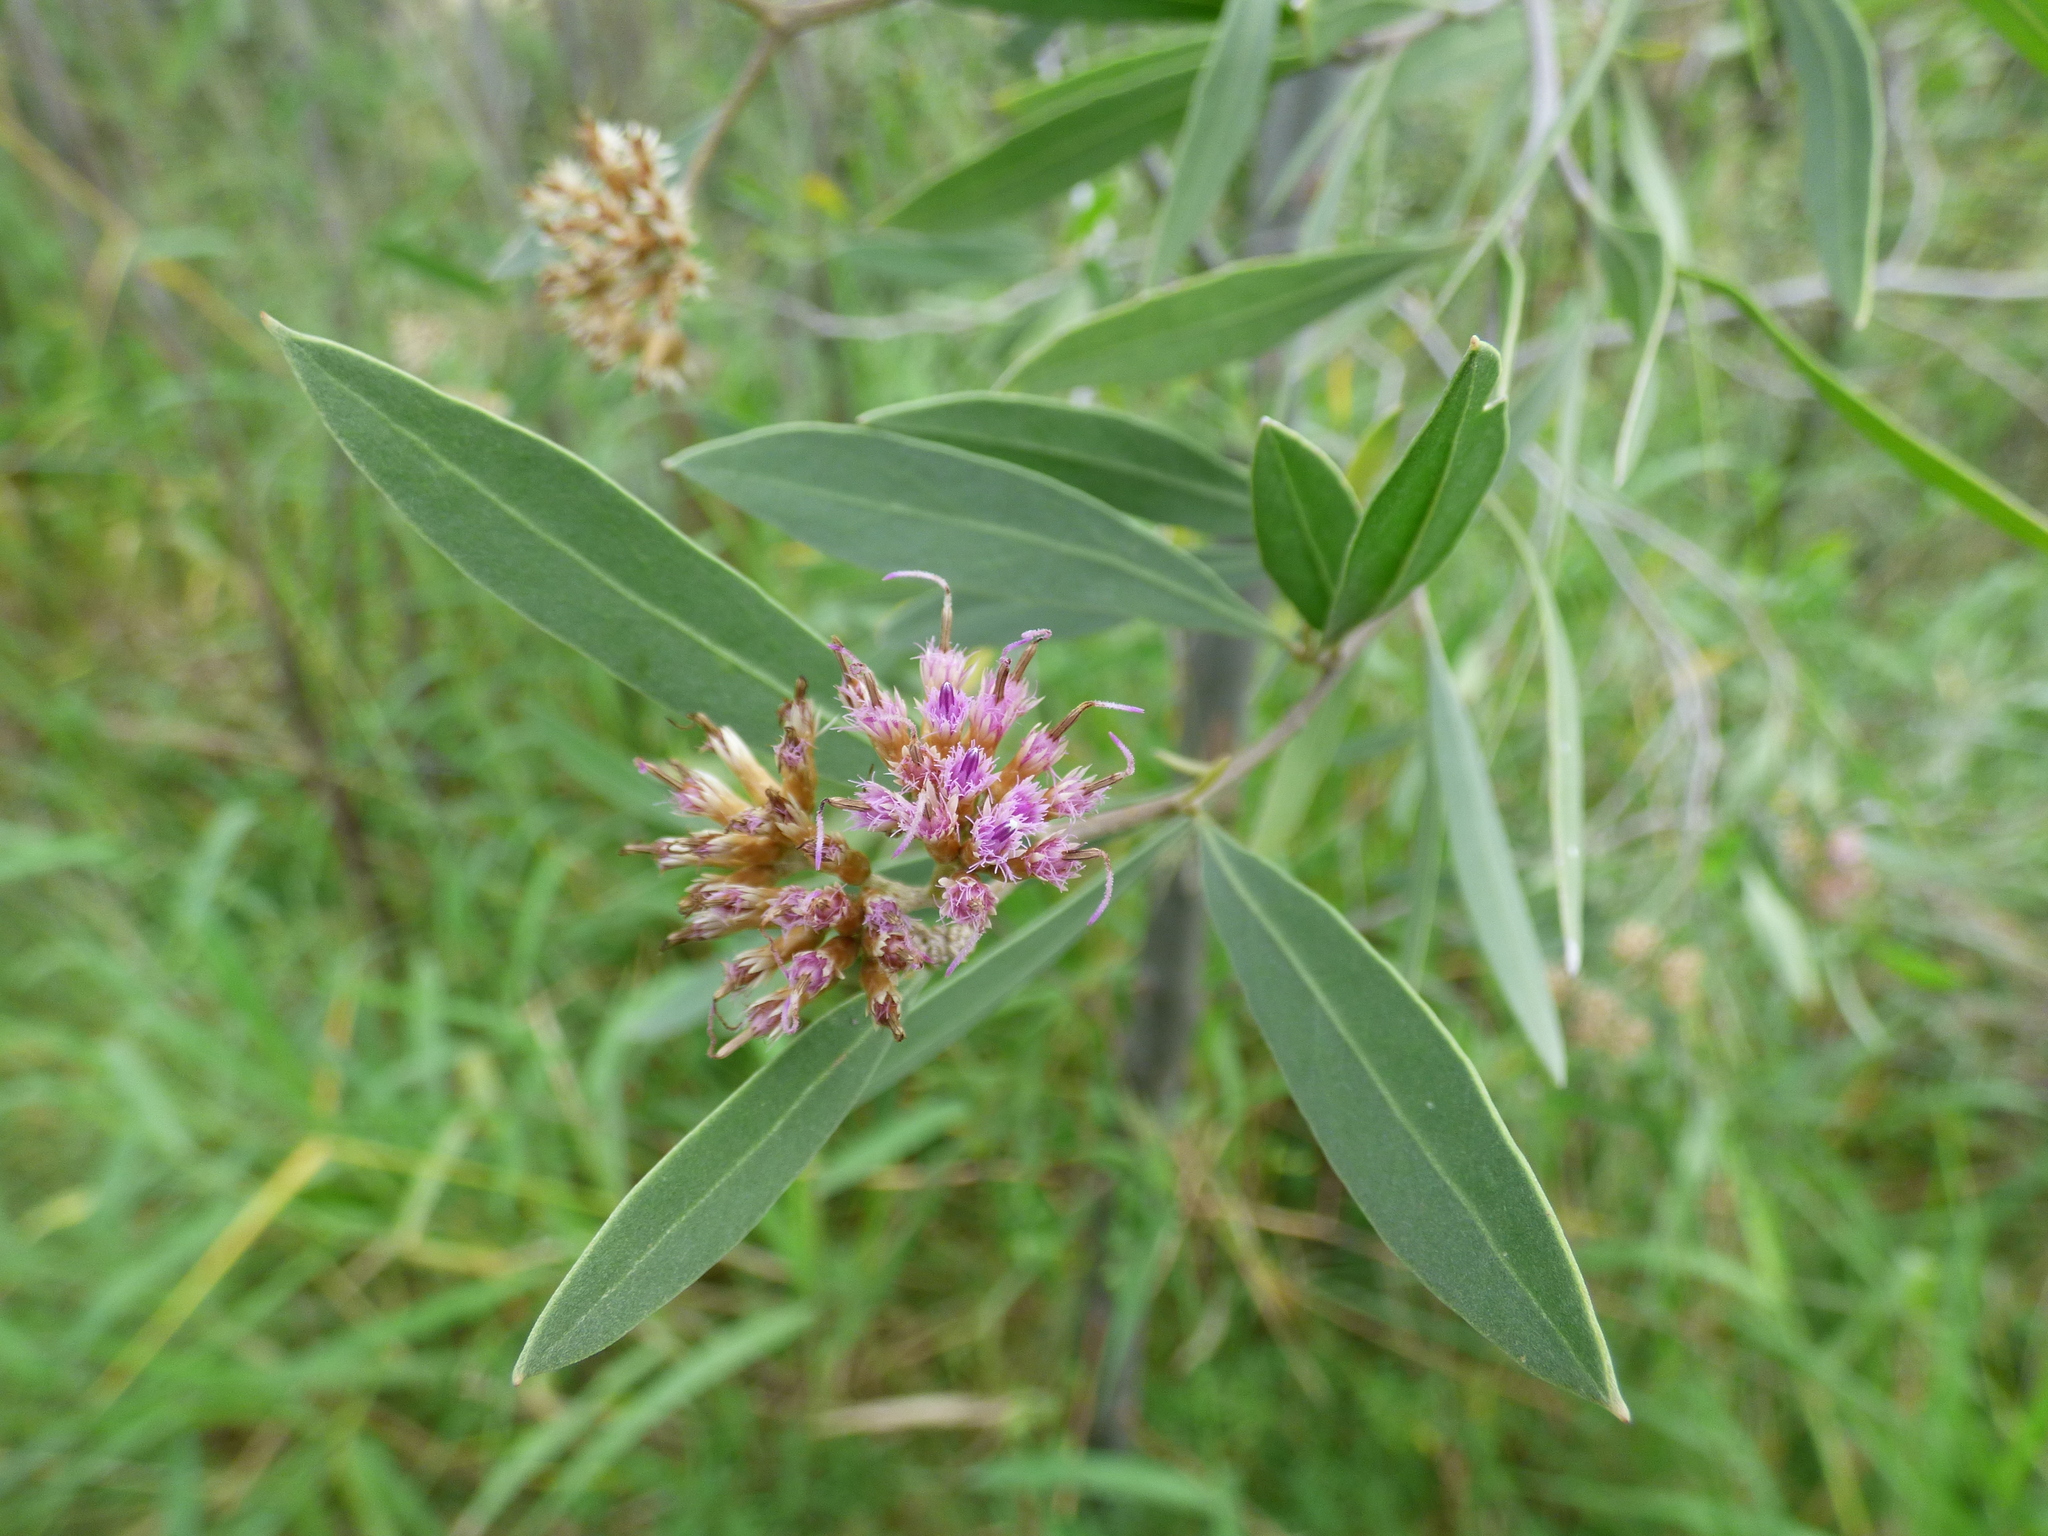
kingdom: Plantae
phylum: Tracheophyta
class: Magnoliopsida
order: Asterales
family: Asteraceae
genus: Tessaria
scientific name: Tessaria integrifolia
